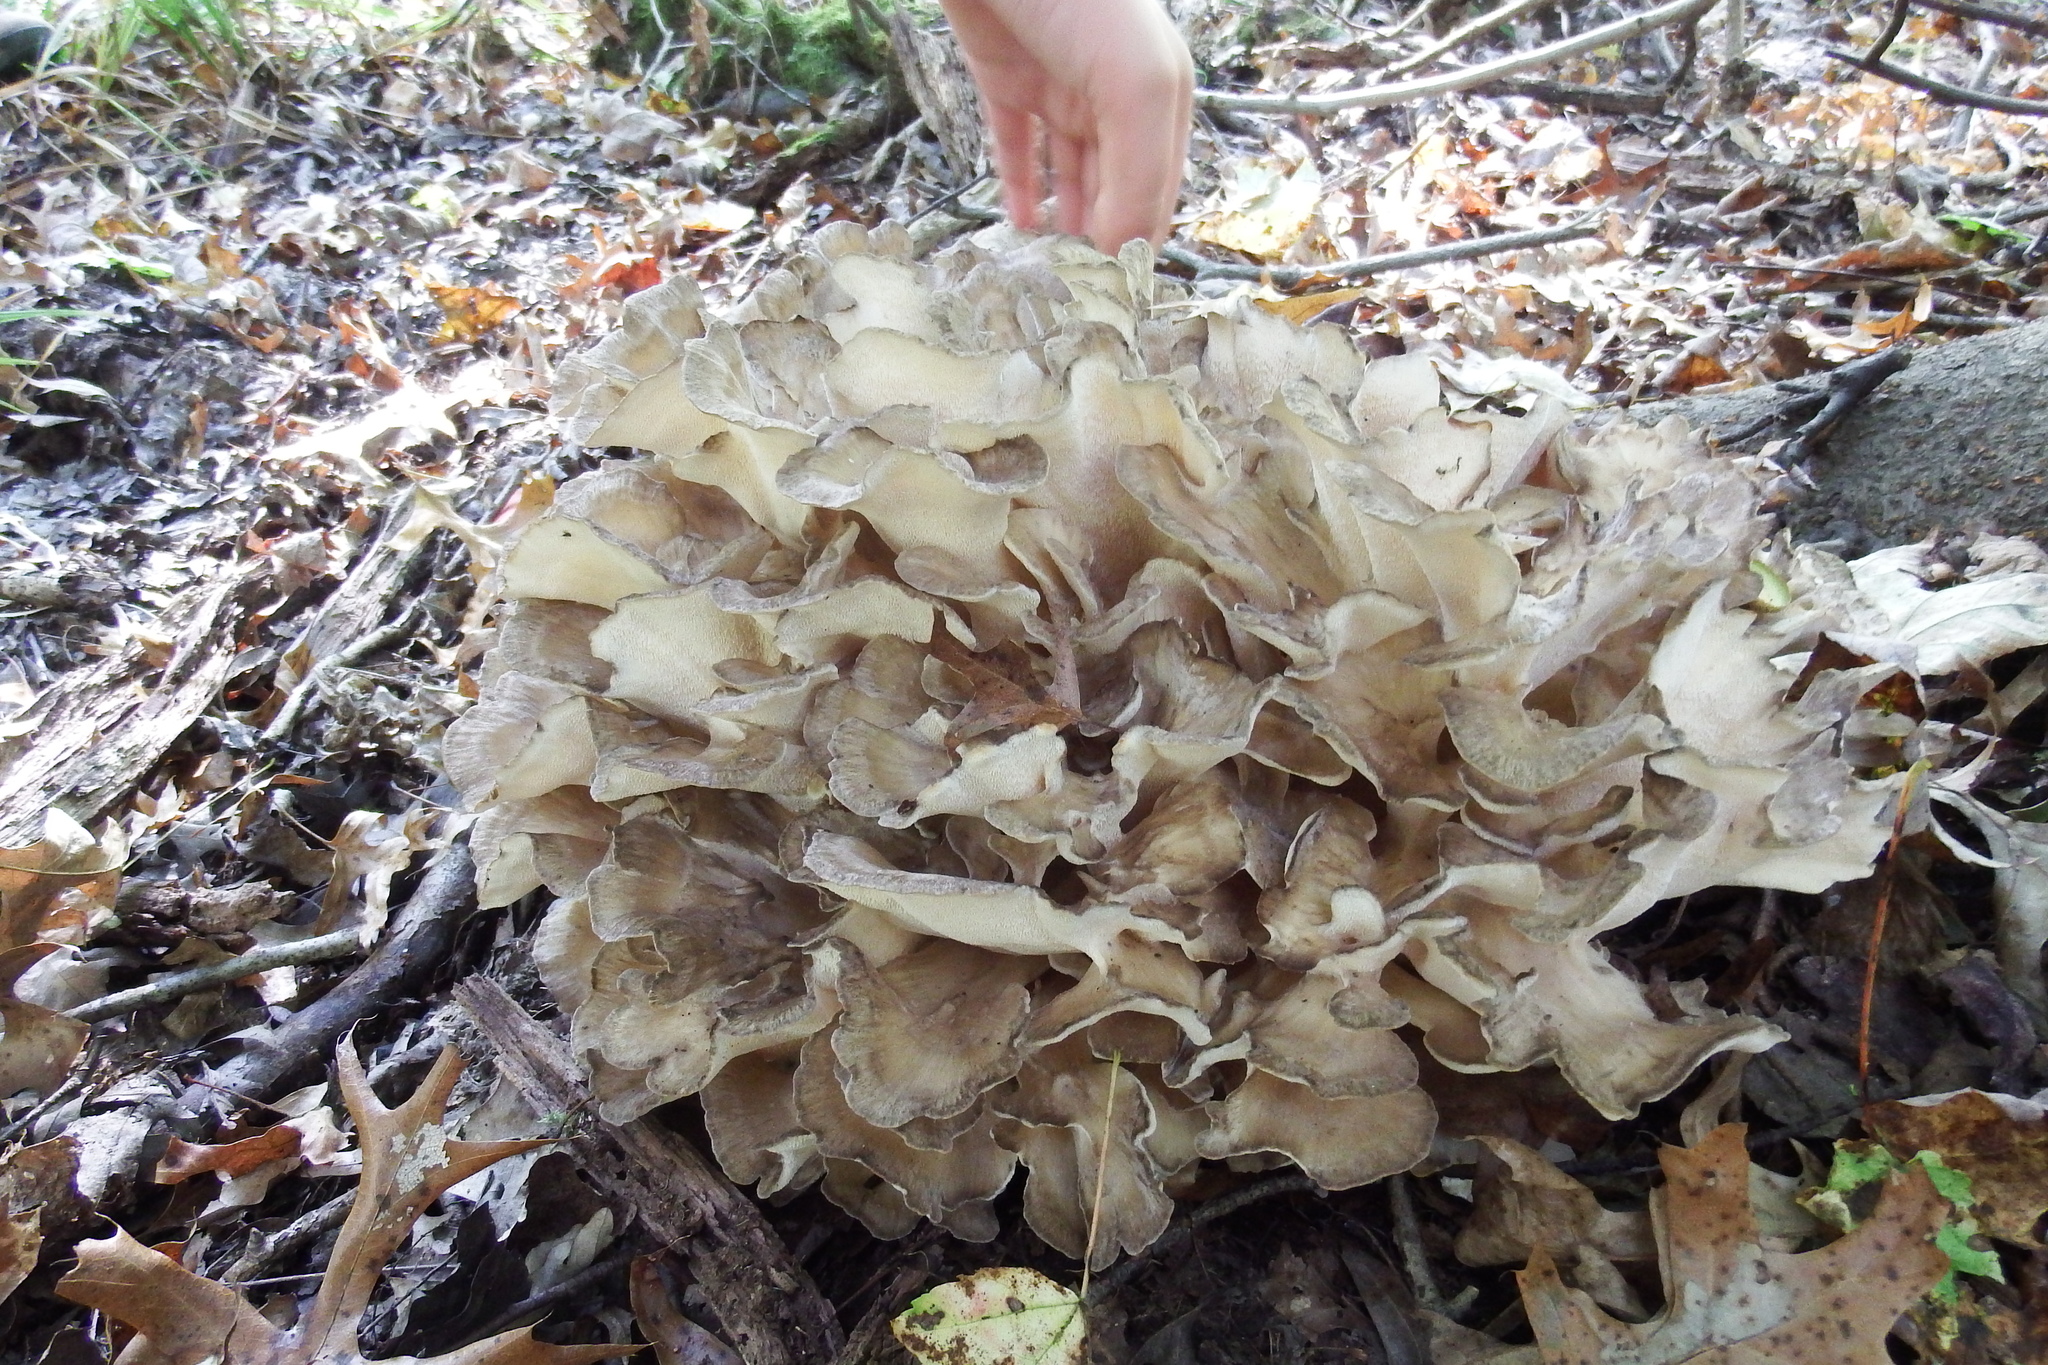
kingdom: Fungi
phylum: Basidiomycota
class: Agaricomycetes
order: Polyporales
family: Grifolaceae
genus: Grifola
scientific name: Grifola frondosa
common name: Hen of the woods
